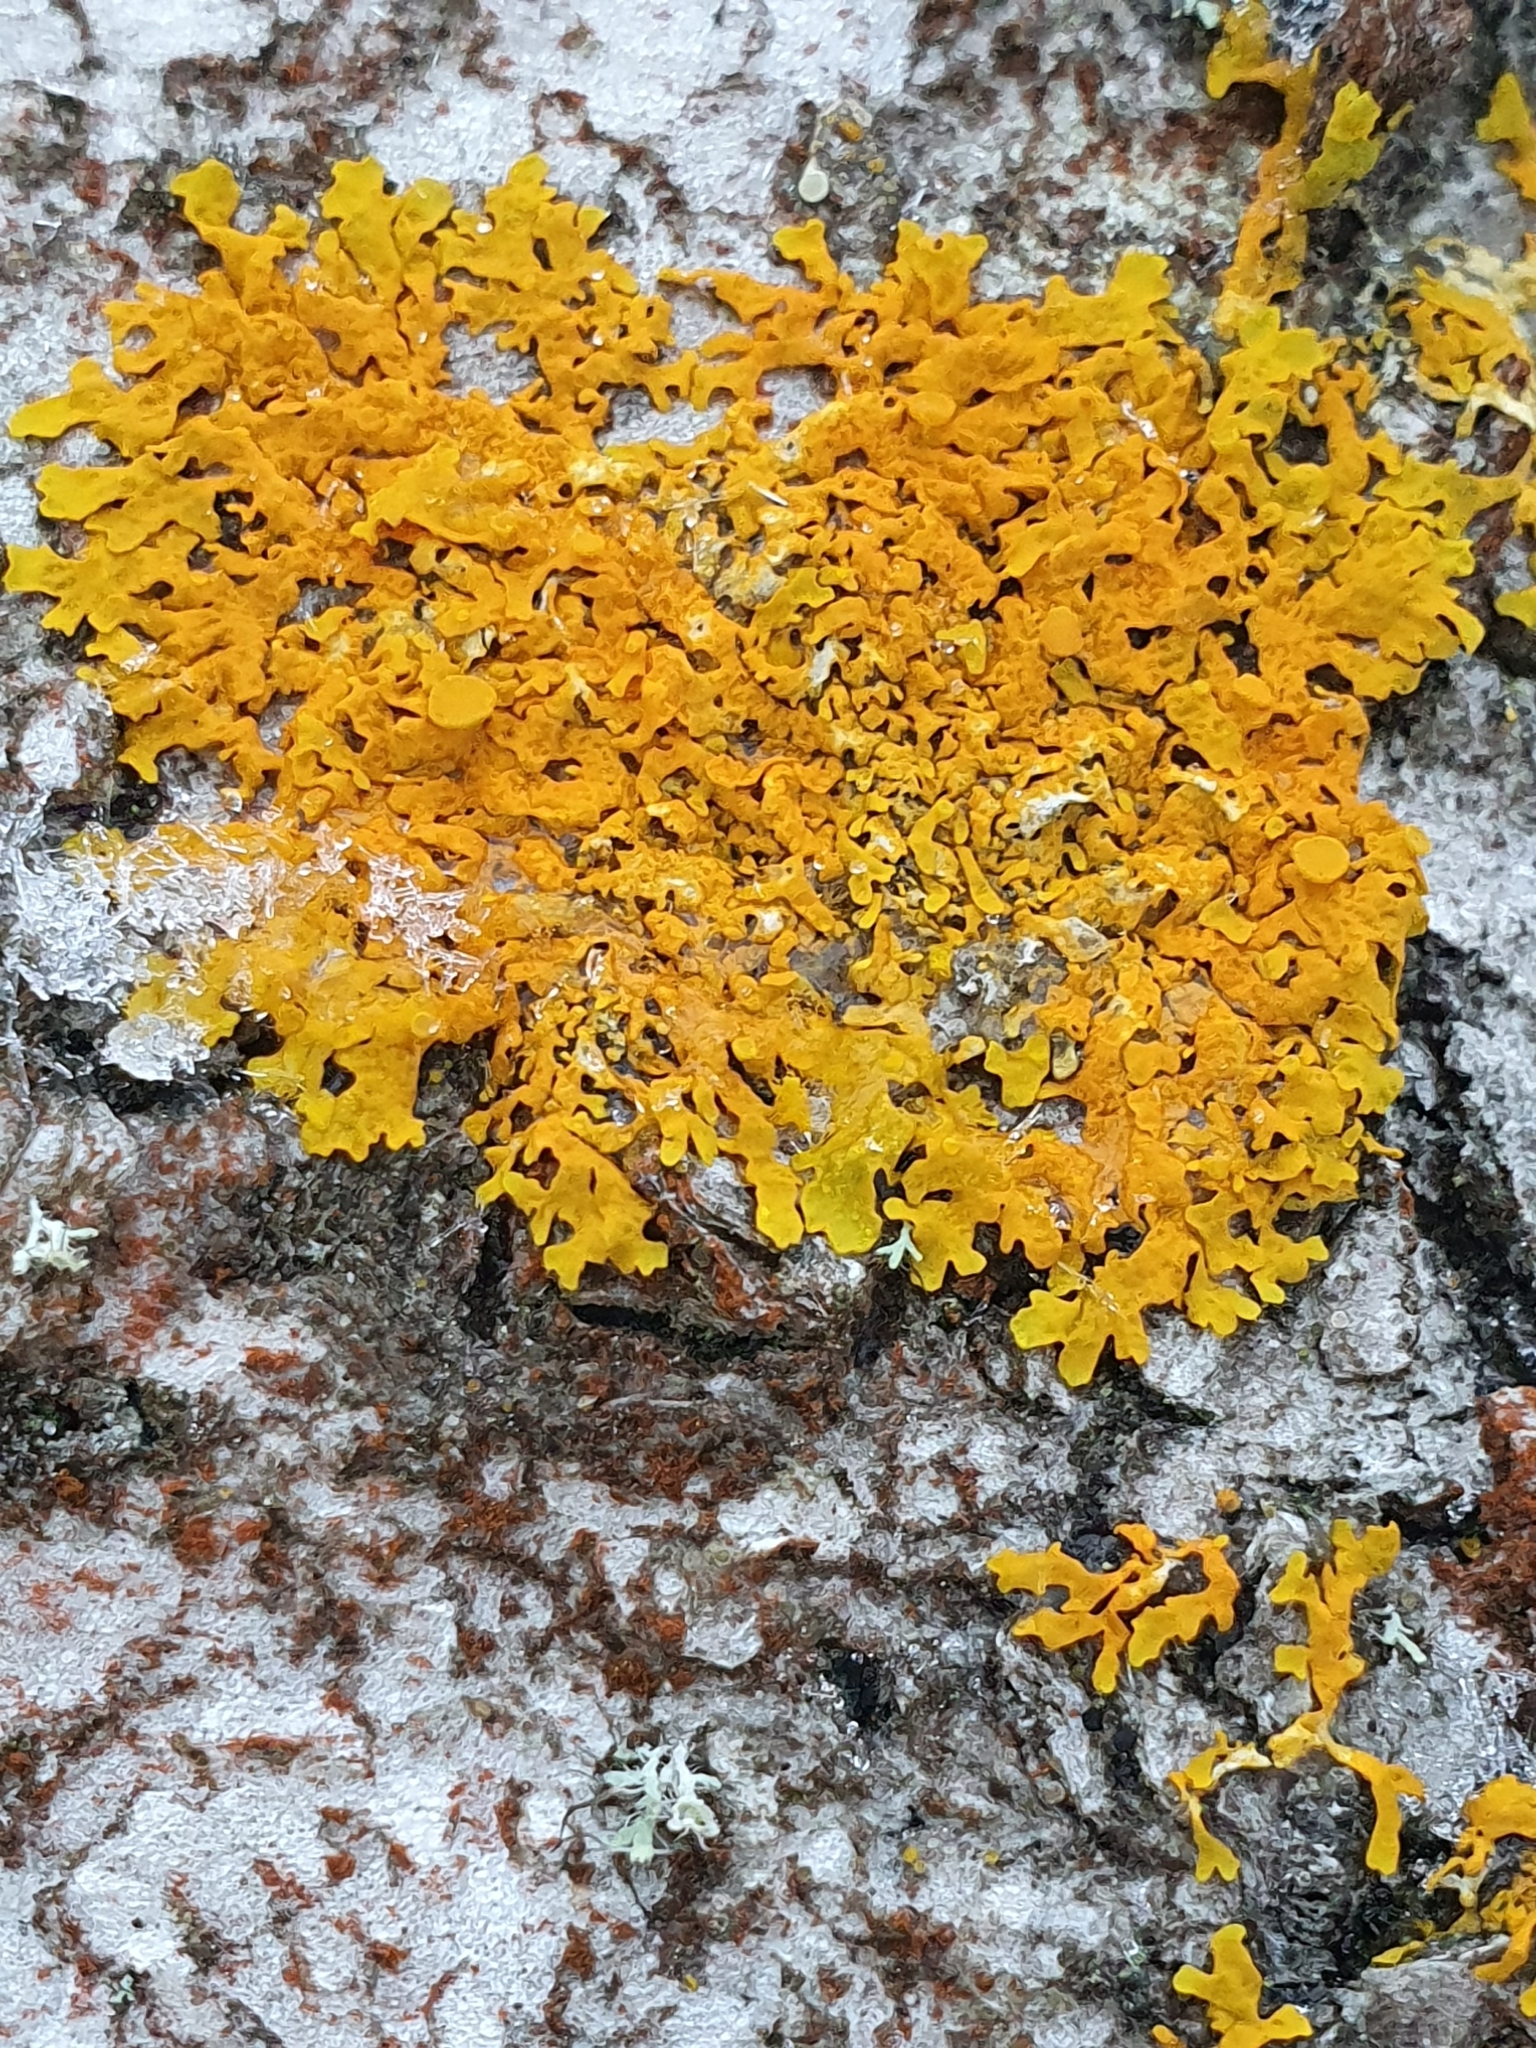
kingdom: Fungi
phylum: Ascomycota
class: Lecanoromycetes
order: Teloschistales
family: Teloschistaceae
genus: Xanthoria
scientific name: Xanthoria parietina
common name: Common orange lichen
